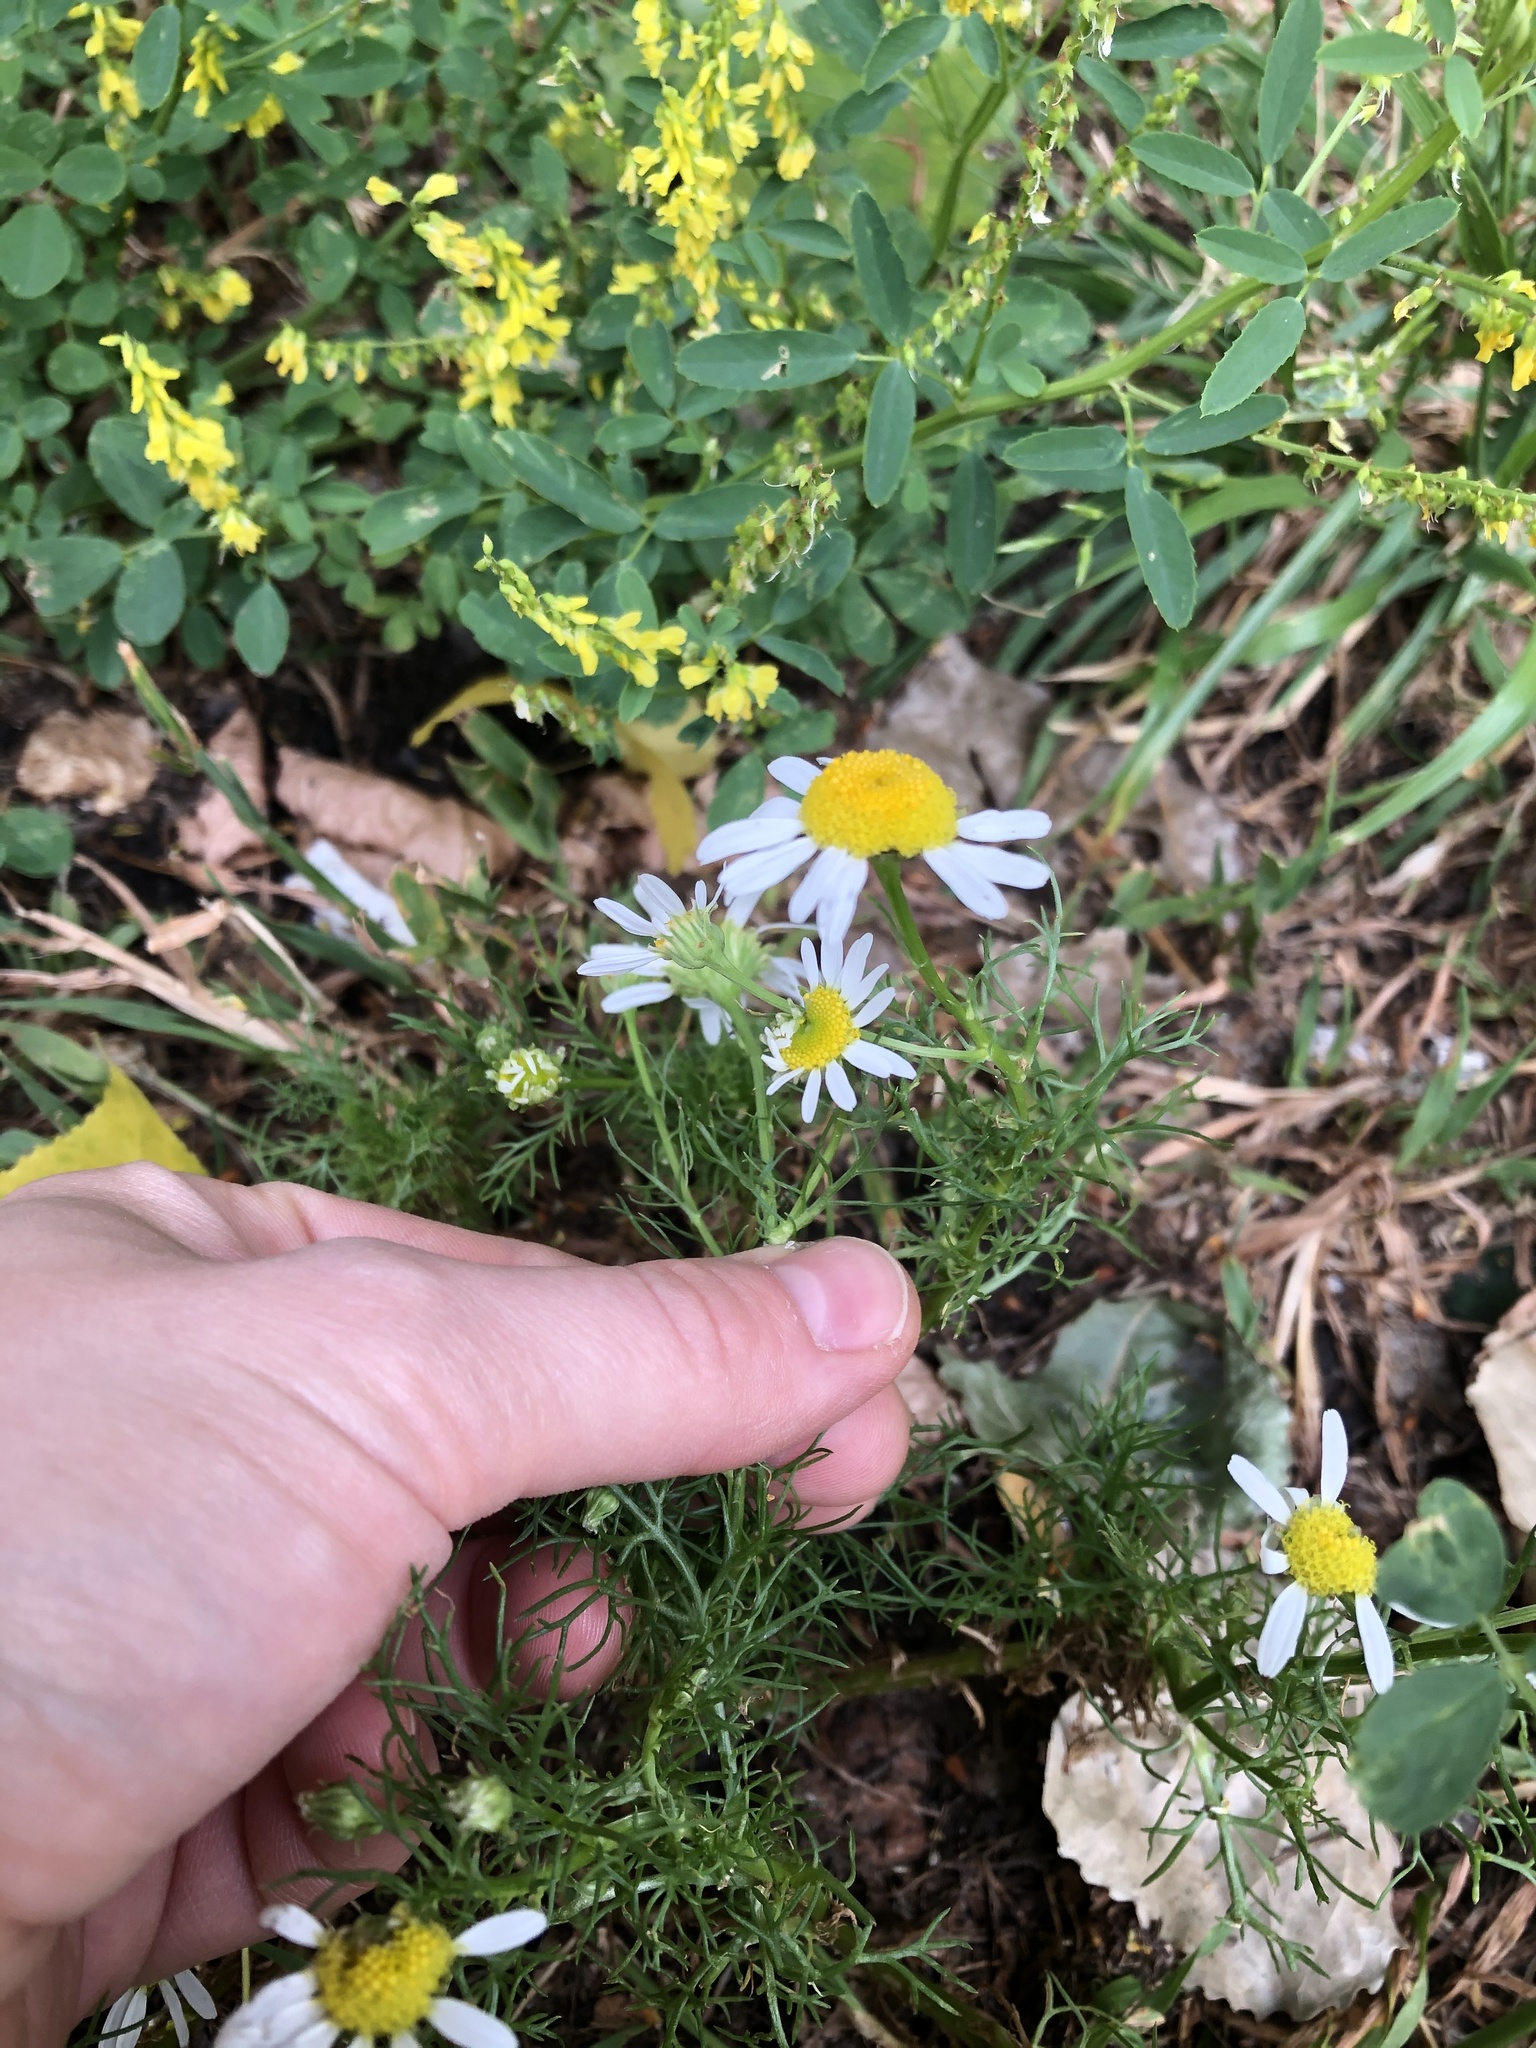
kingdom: Plantae
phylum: Tracheophyta
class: Magnoliopsida
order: Asterales
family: Asteraceae
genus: Tripleurospermum
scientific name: Tripleurospermum inodorum
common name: Scentless mayweed
